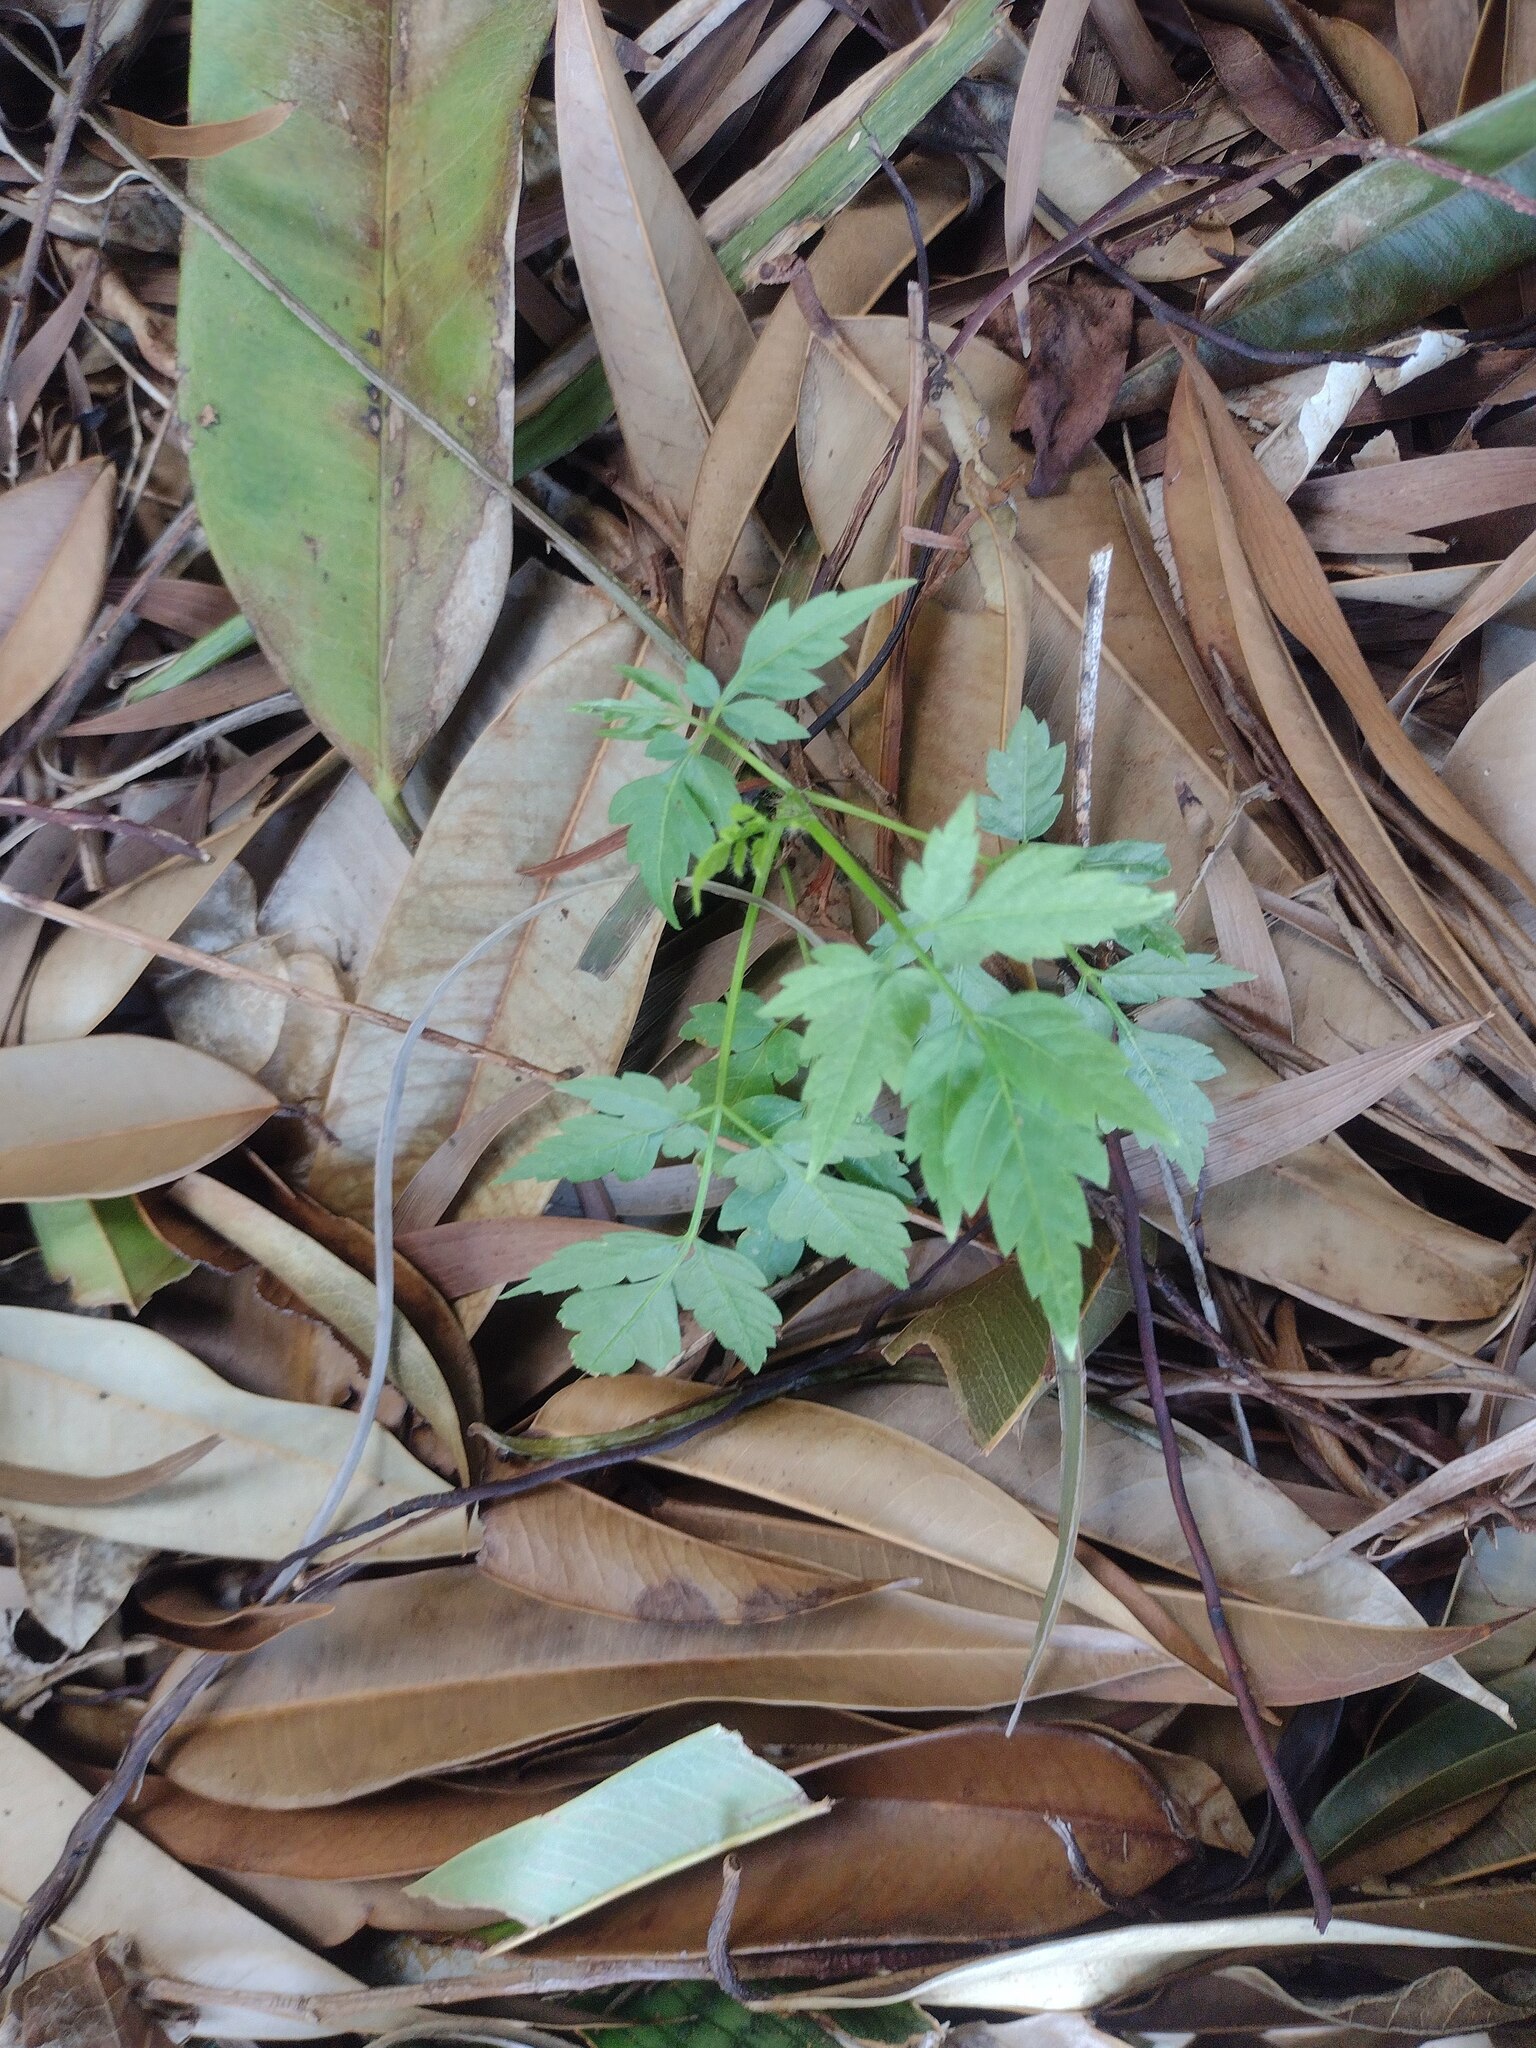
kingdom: Plantae
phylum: Tracheophyta
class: Magnoliopsida
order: Sapindales
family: Sapindaceae
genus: Cardiospermum
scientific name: Cardiospermum grandiflorum
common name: Balloon vine
